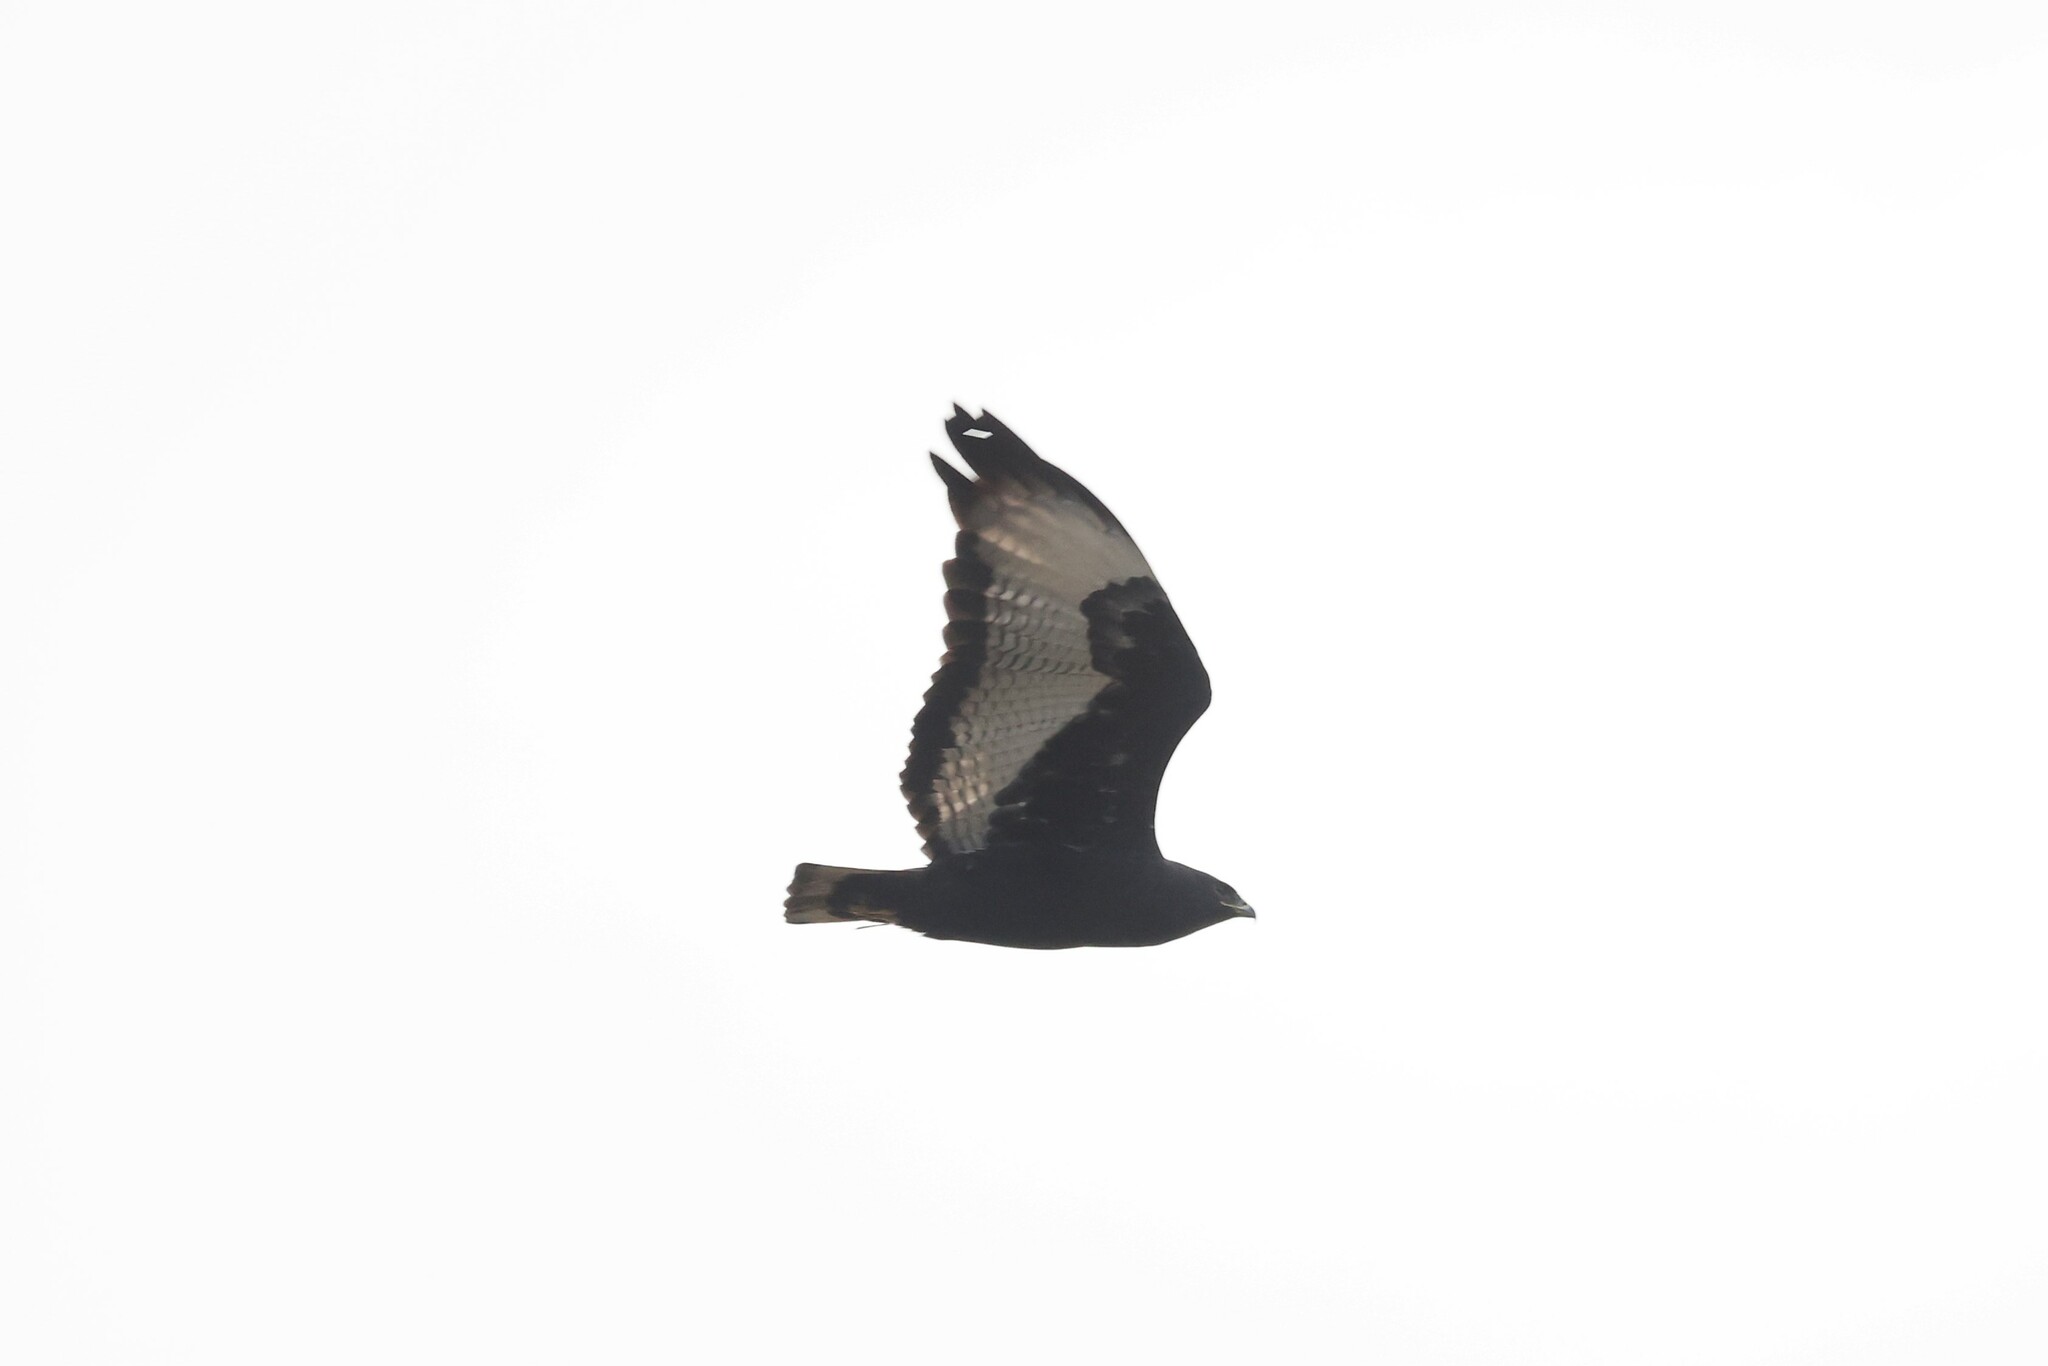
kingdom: Animalia
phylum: Chordata
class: Aves
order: Accipitriformes
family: Accipitridae
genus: Buteo
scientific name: Buteo augur
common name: Augur buzzard
